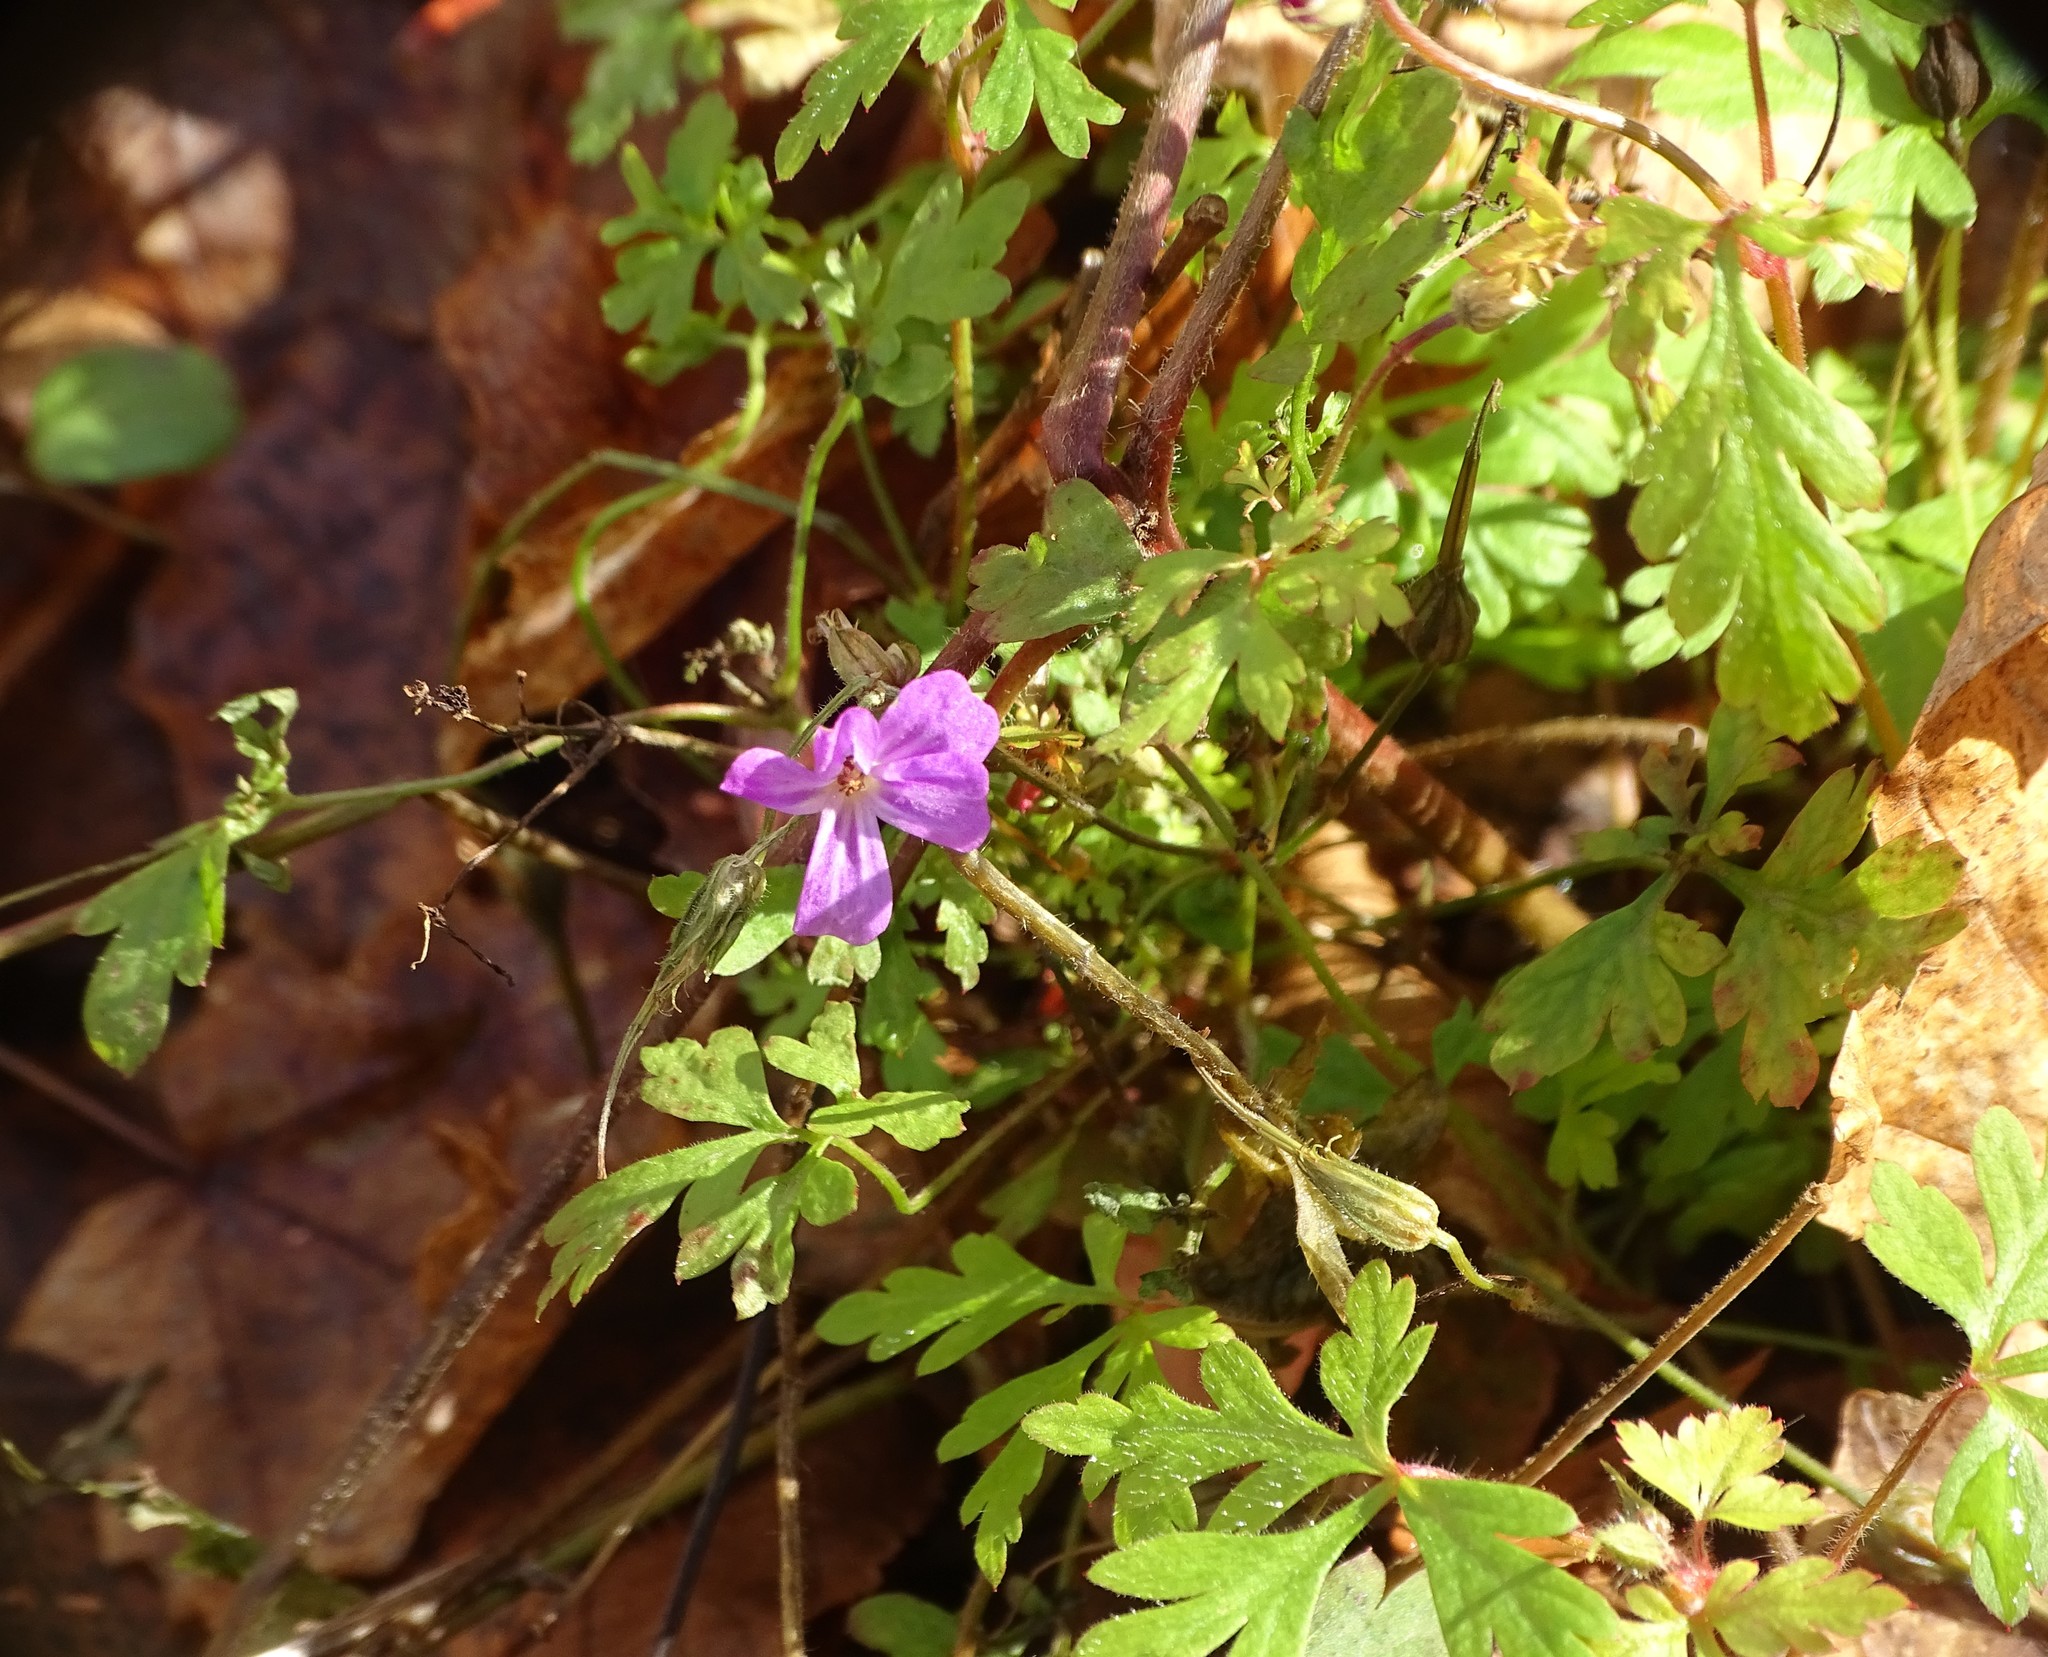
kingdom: Plantae
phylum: Tracheophyta
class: Magnoliopsida
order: Geraniales
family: Geraniaceae
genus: Geranium
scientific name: Geranium robertianum
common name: Herb-robert
